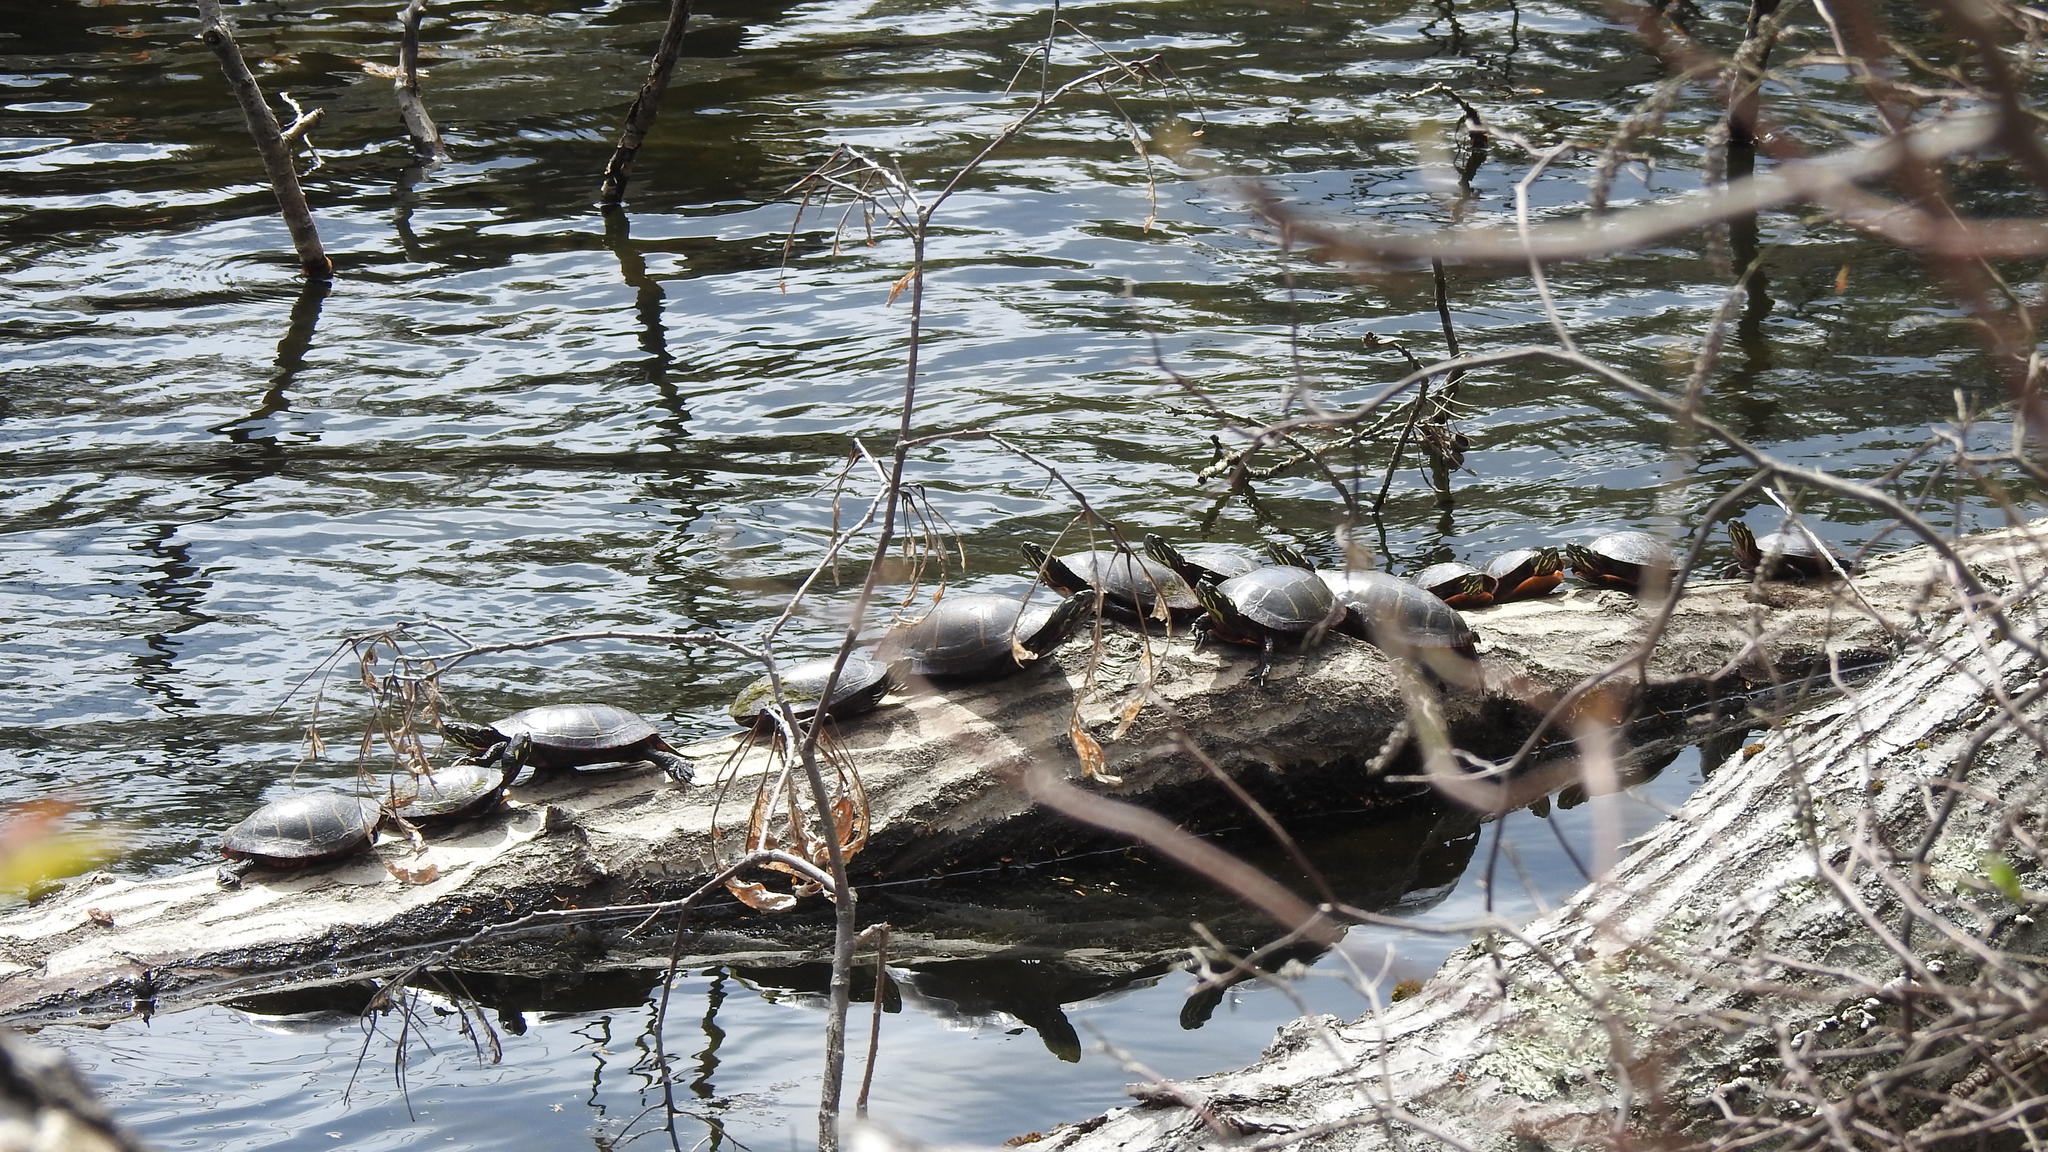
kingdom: Animalia
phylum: Chordata
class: Testudines
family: Emydidae
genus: Chrysemys
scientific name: Chrysemys picta
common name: Painted turtle
